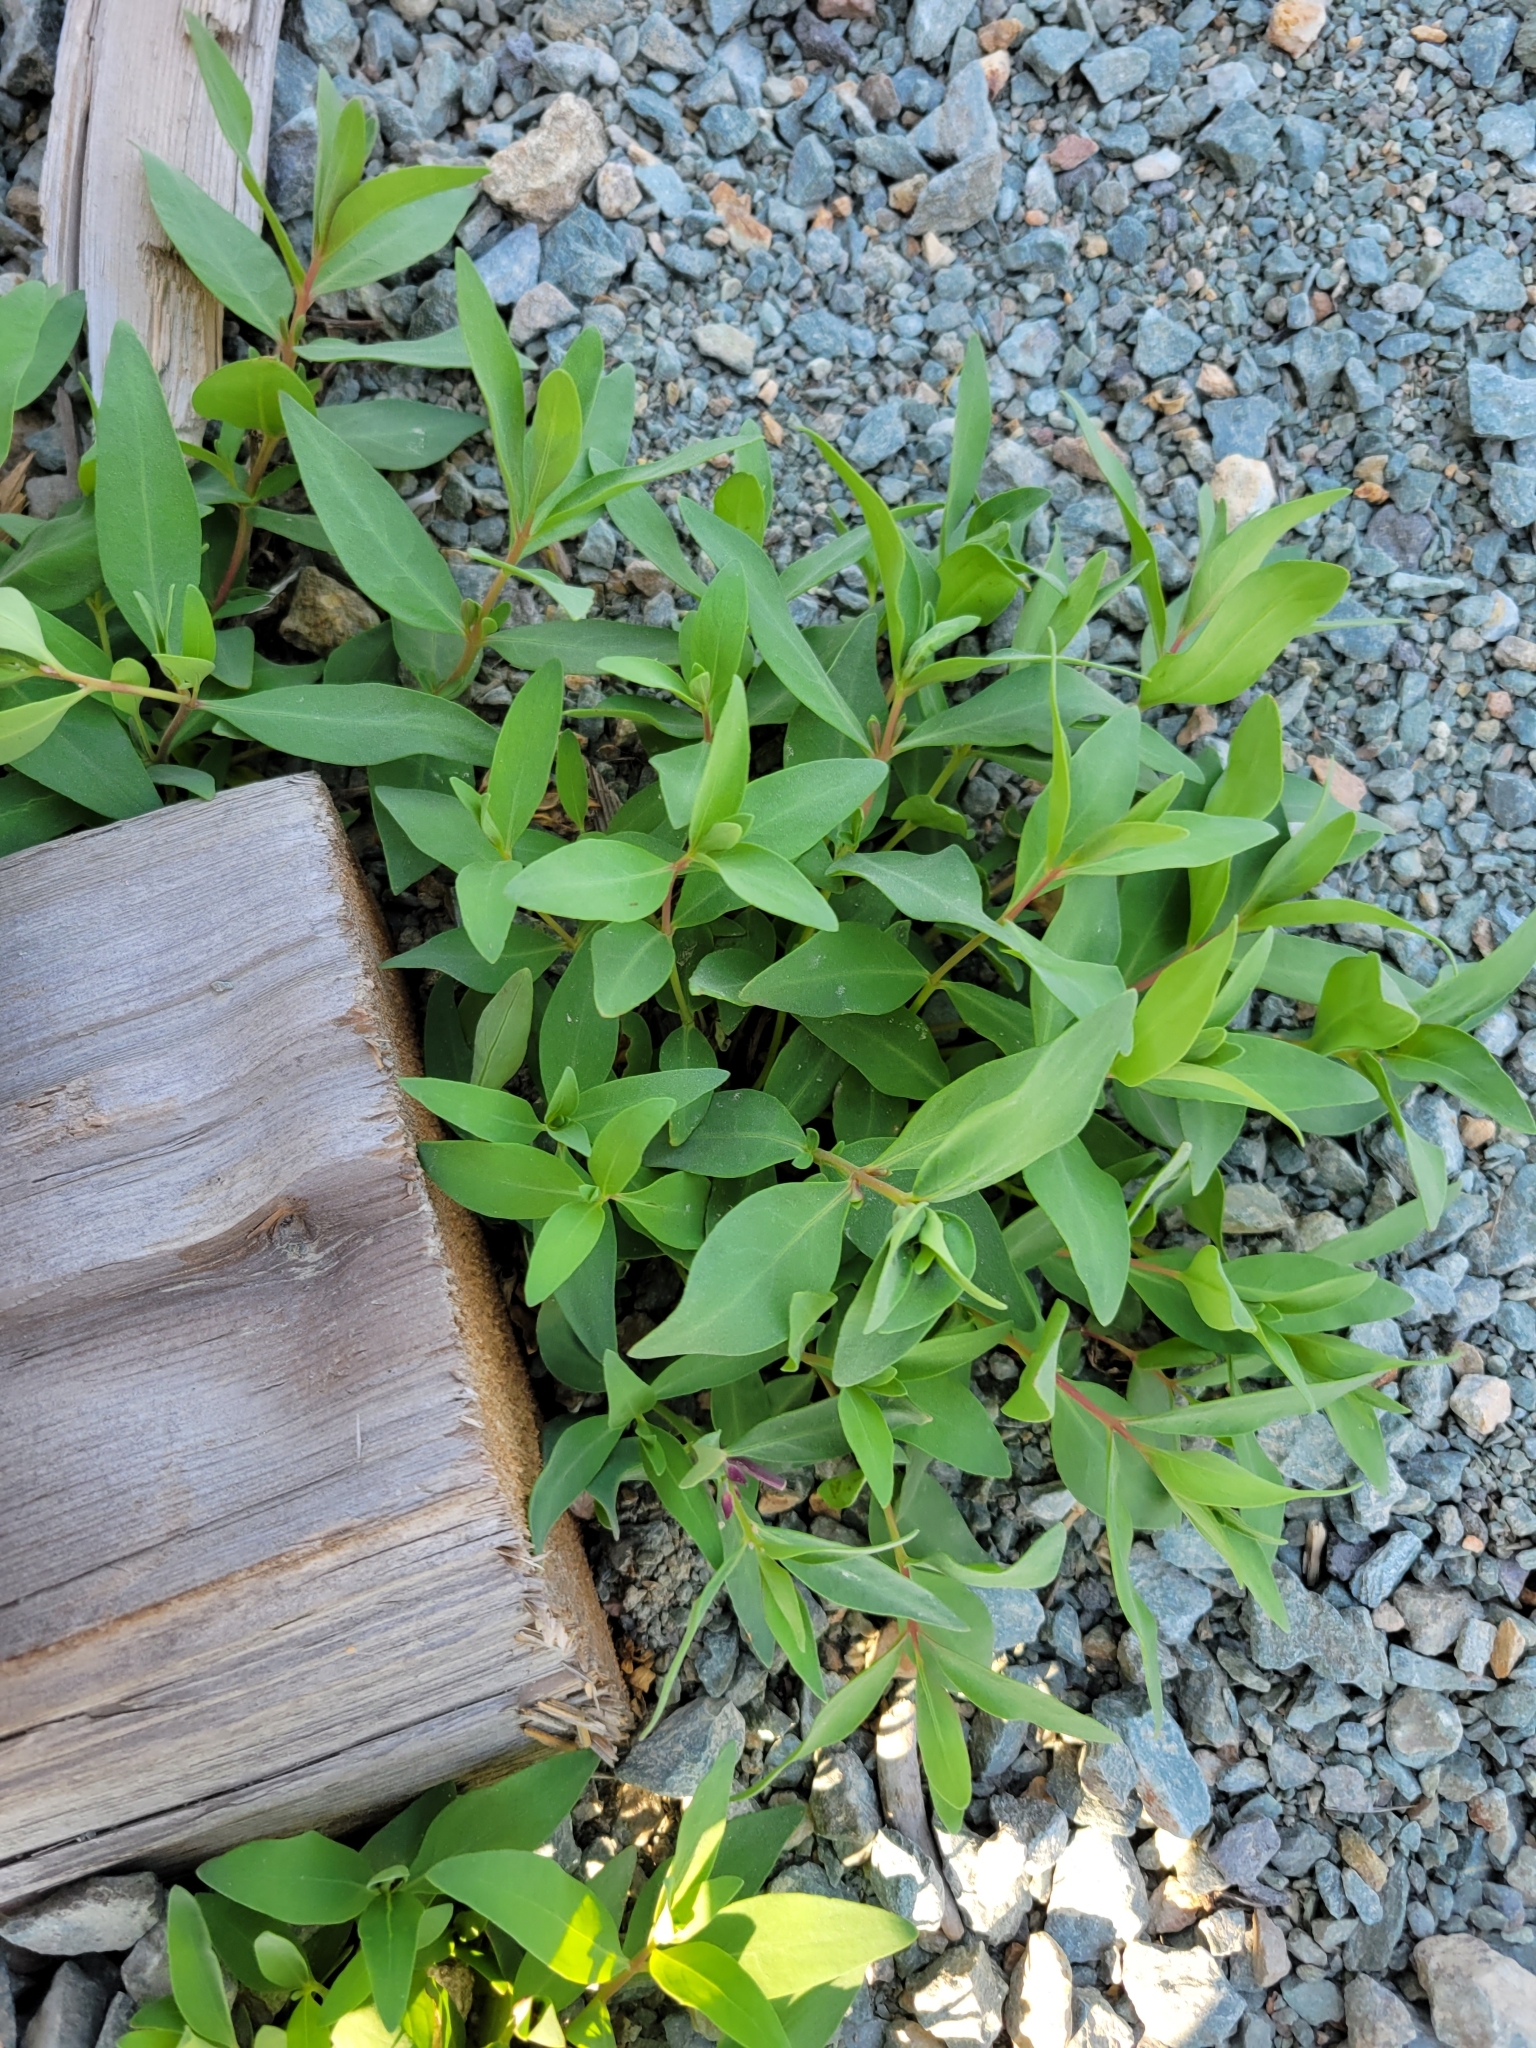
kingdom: Plantae
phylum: Tracheophyta
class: Magnoliopsida
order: Myrtales
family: Onagraceae
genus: Chamaenerion
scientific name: Chamaenerion latifolium
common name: Dwarf fireweed
